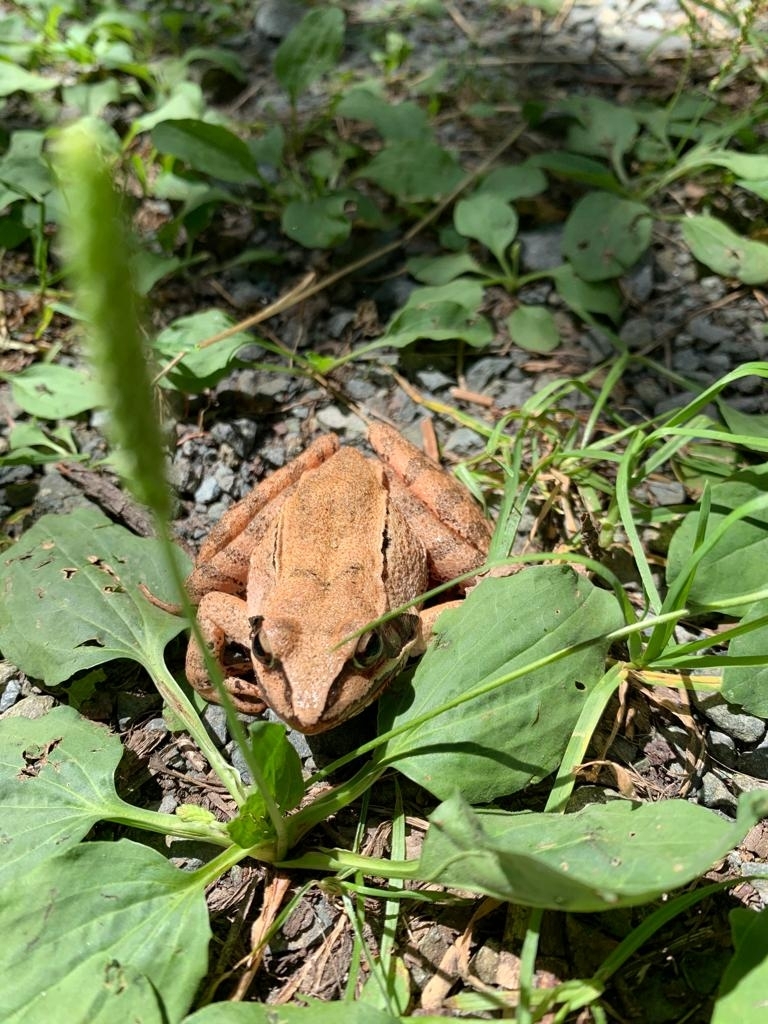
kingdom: Animalia
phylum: Chordata
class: Amphibia
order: Anura
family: Ranidae
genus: Rana
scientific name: Rana dalmatina
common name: Agile frog
